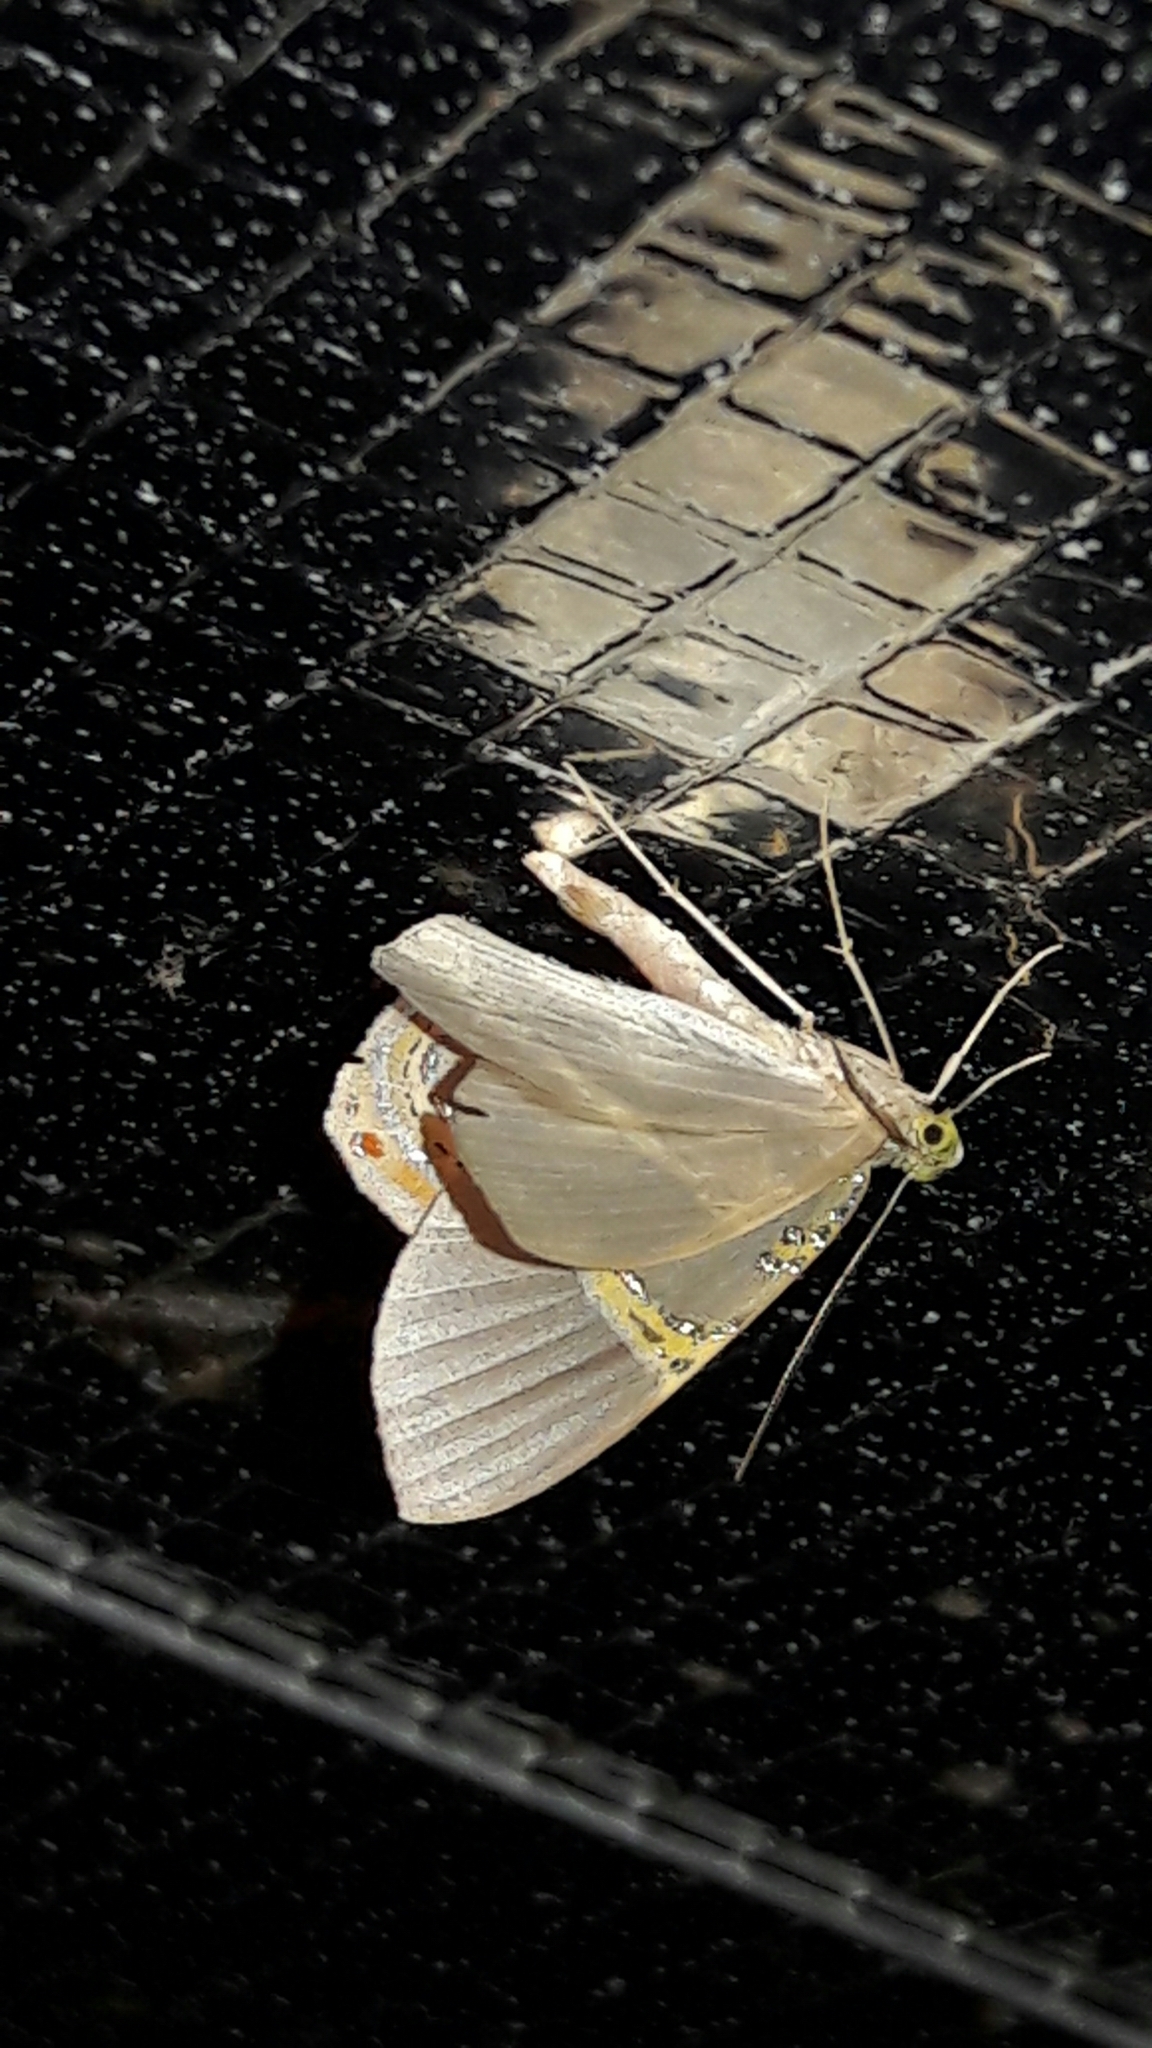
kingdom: Animalia
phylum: Arthropoda
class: Insecta
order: Lepidoptera
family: Geometridae
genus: Phrygionis
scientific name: Phrygionis paradoxata
